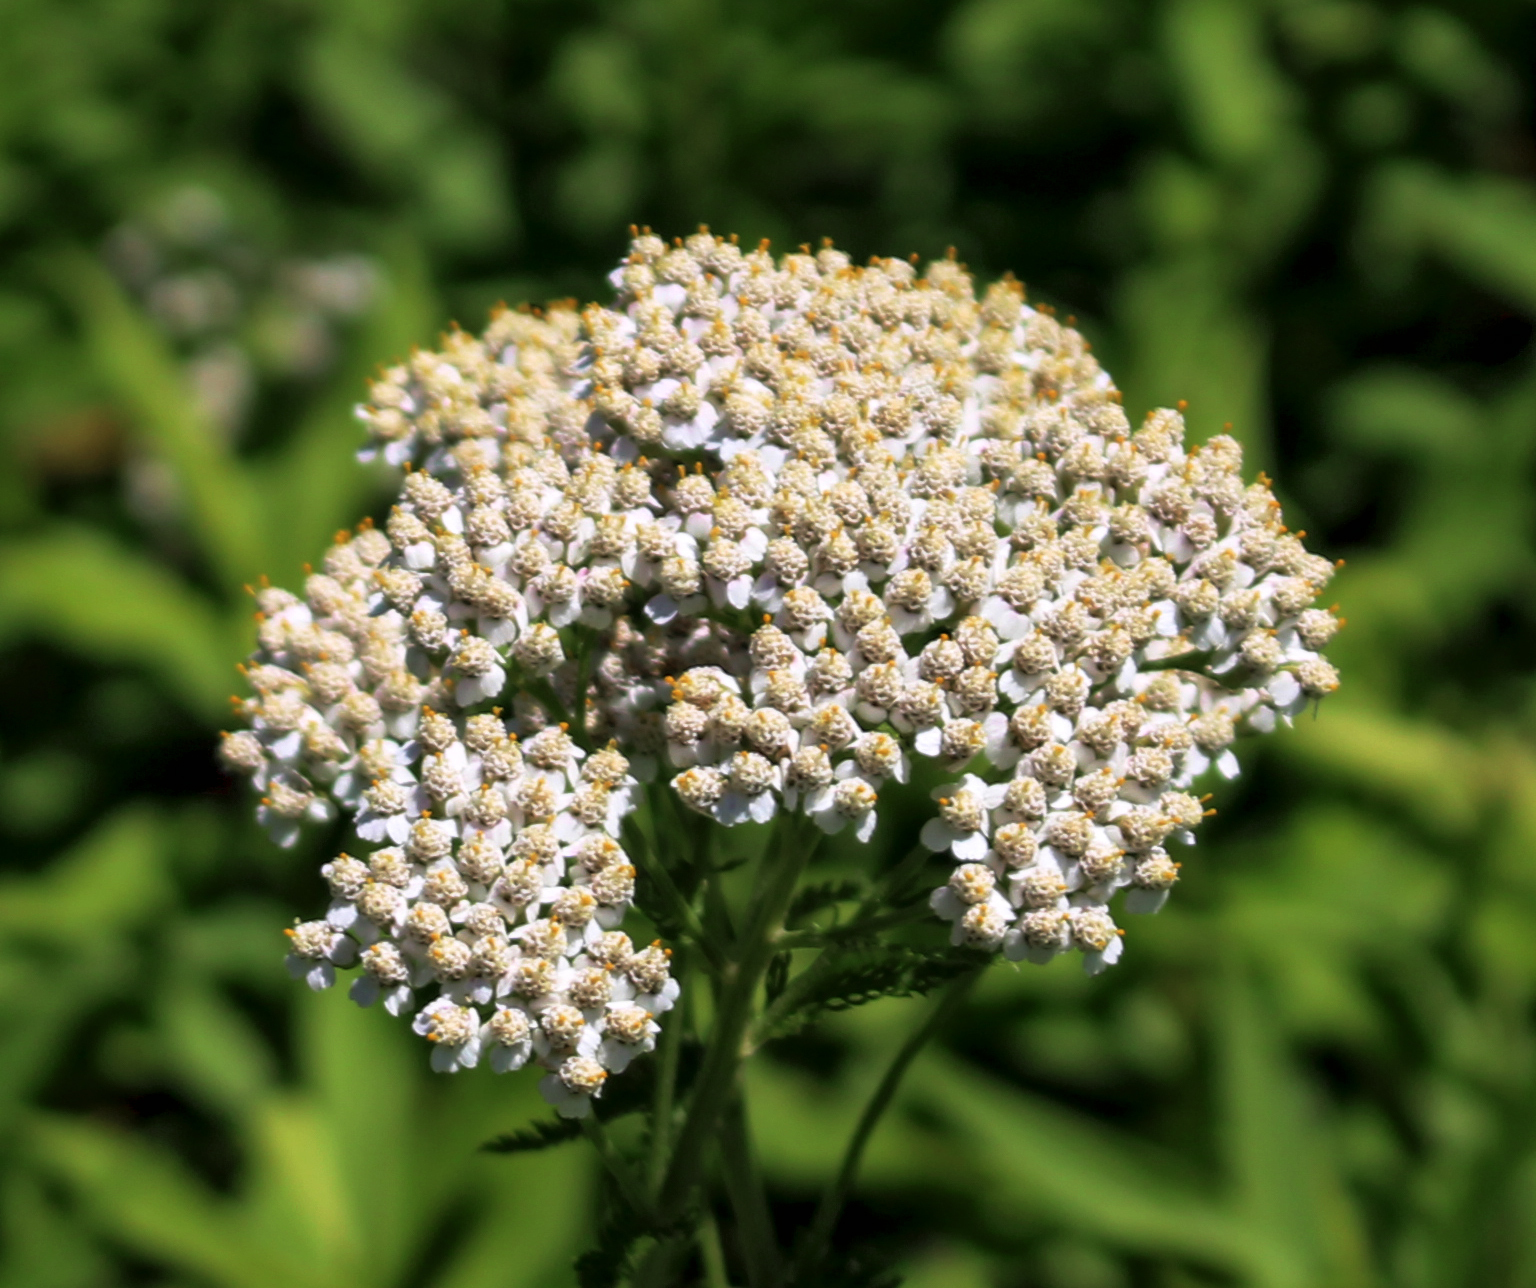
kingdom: Plantae
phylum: Tracheophyta
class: Magnoliopsida
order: Asterales
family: Asteraceae
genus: Achillea
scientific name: Achillea millefolium
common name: Yarrow
